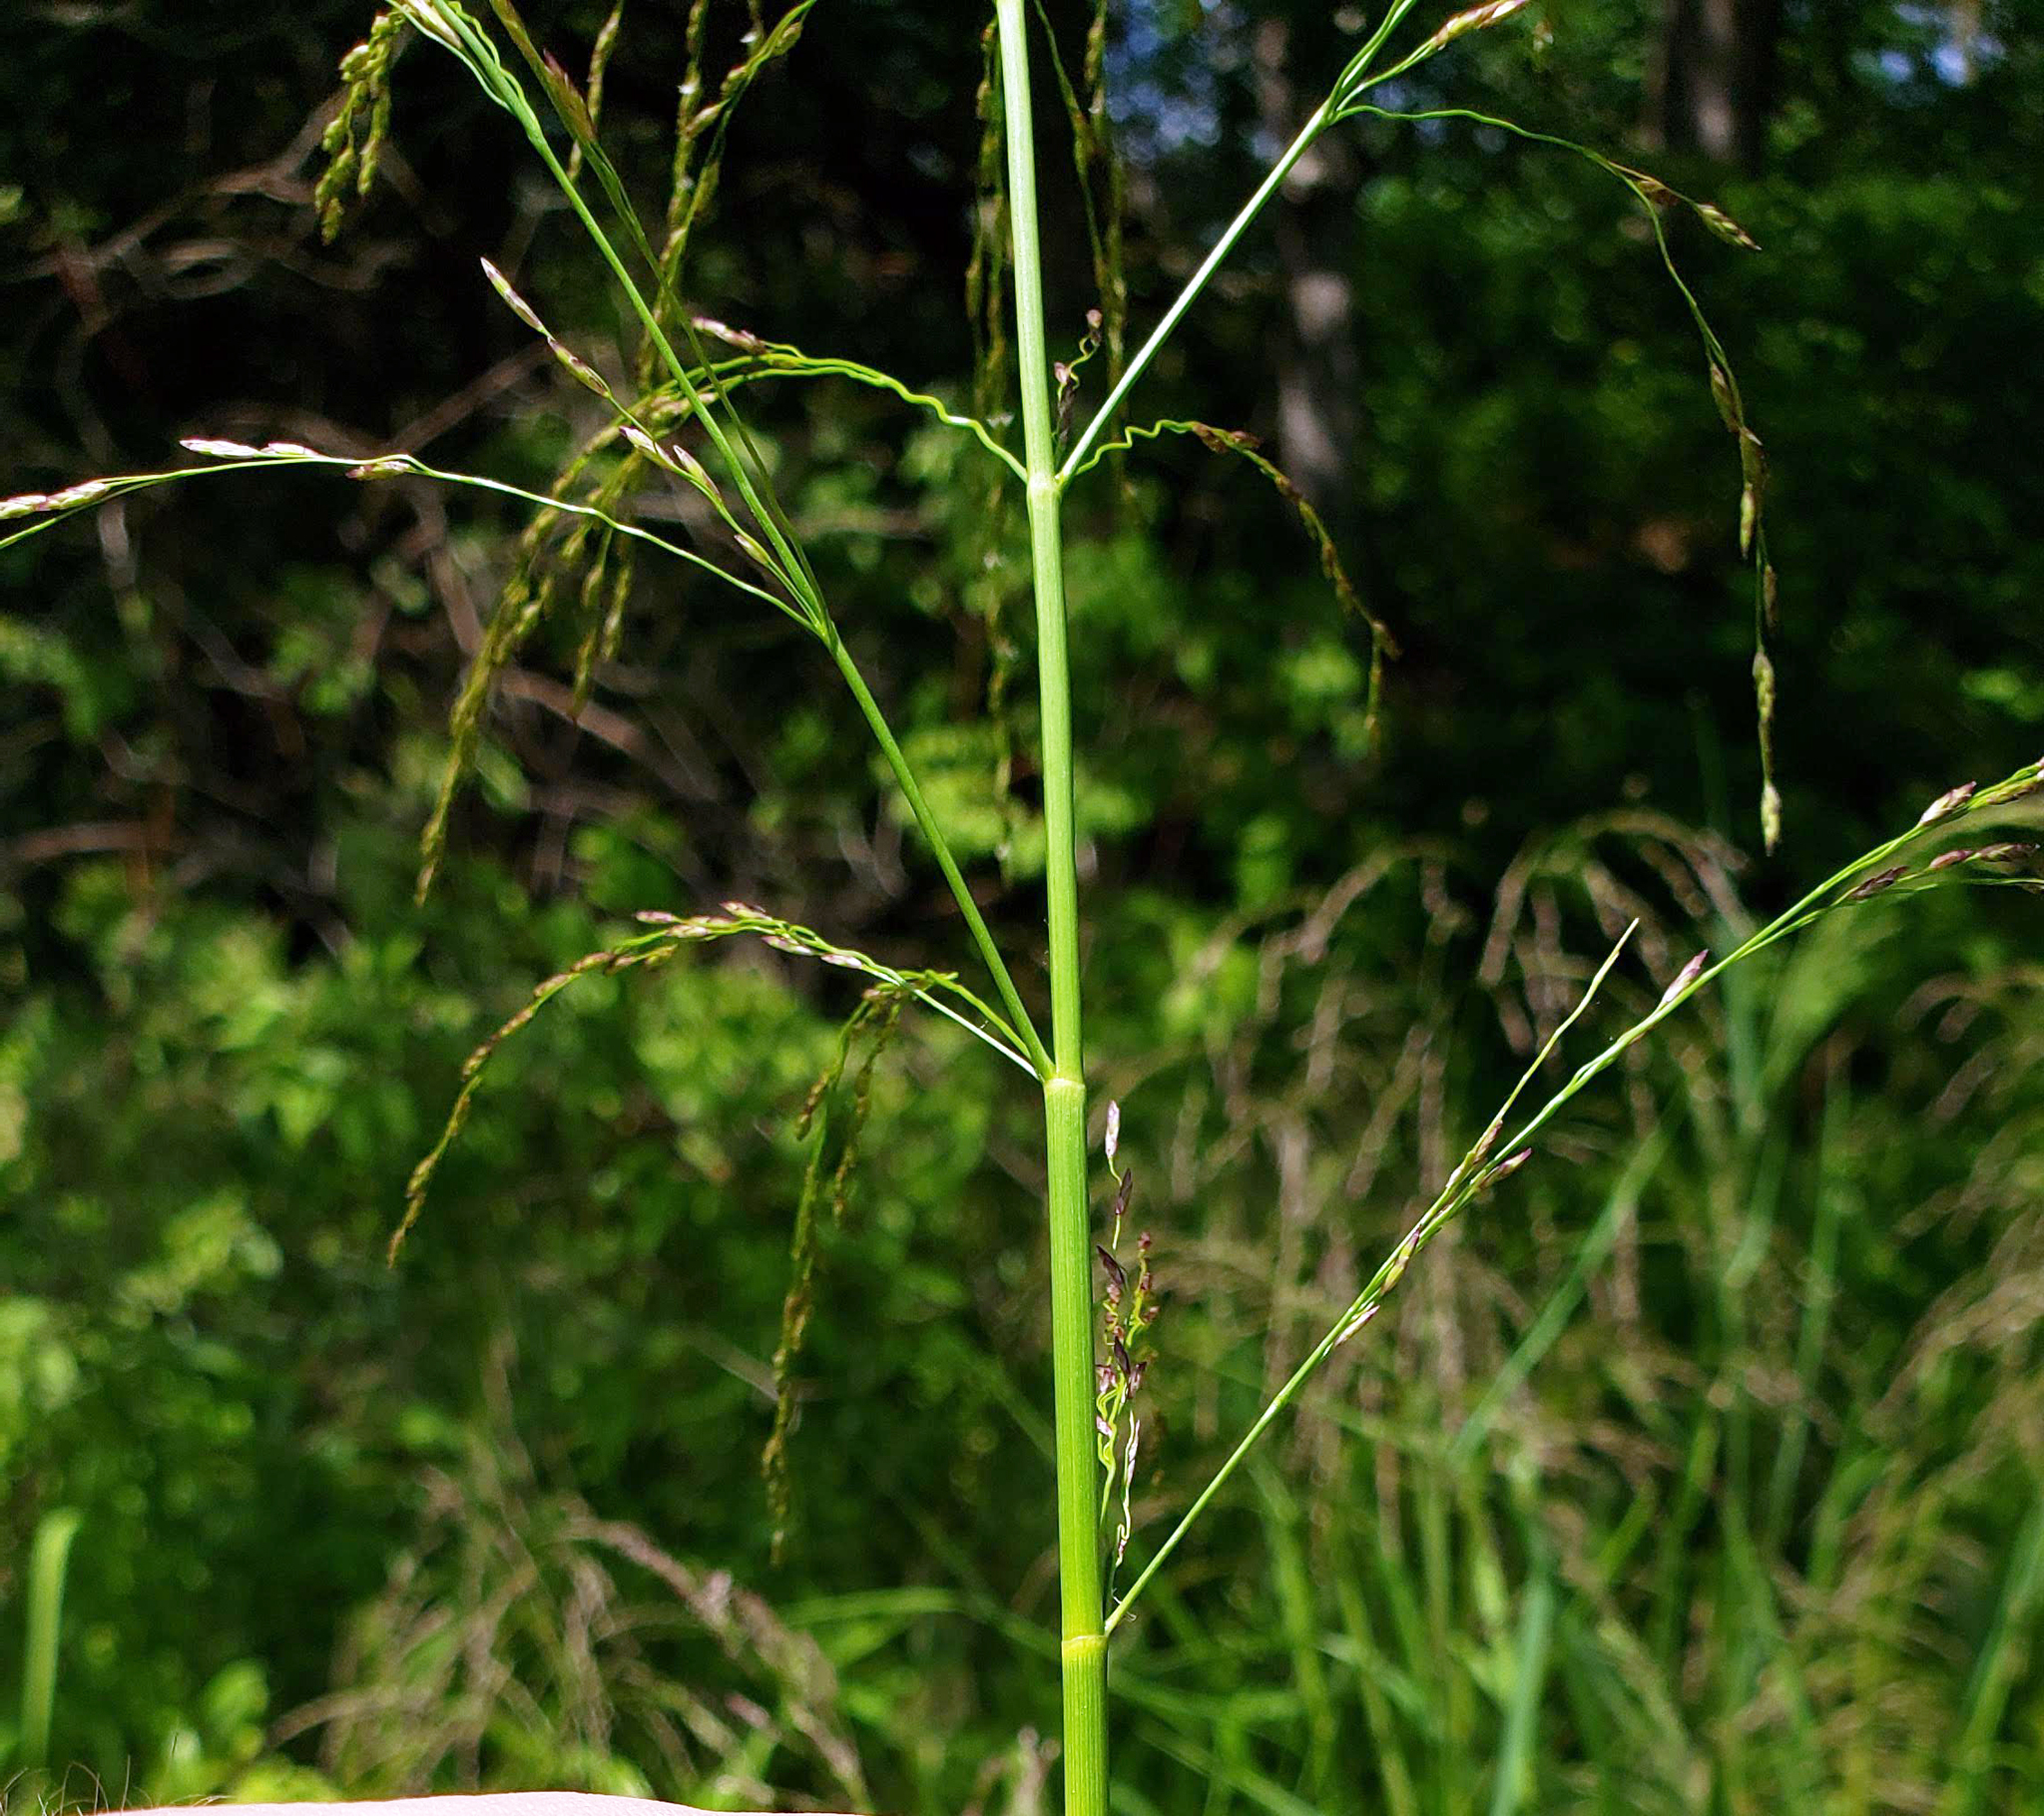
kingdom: Plantae
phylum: Tracheophyta
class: Liliopsida
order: Poales
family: Poaceae
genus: Glyceria
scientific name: Glyceria grandis
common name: American glyceria
